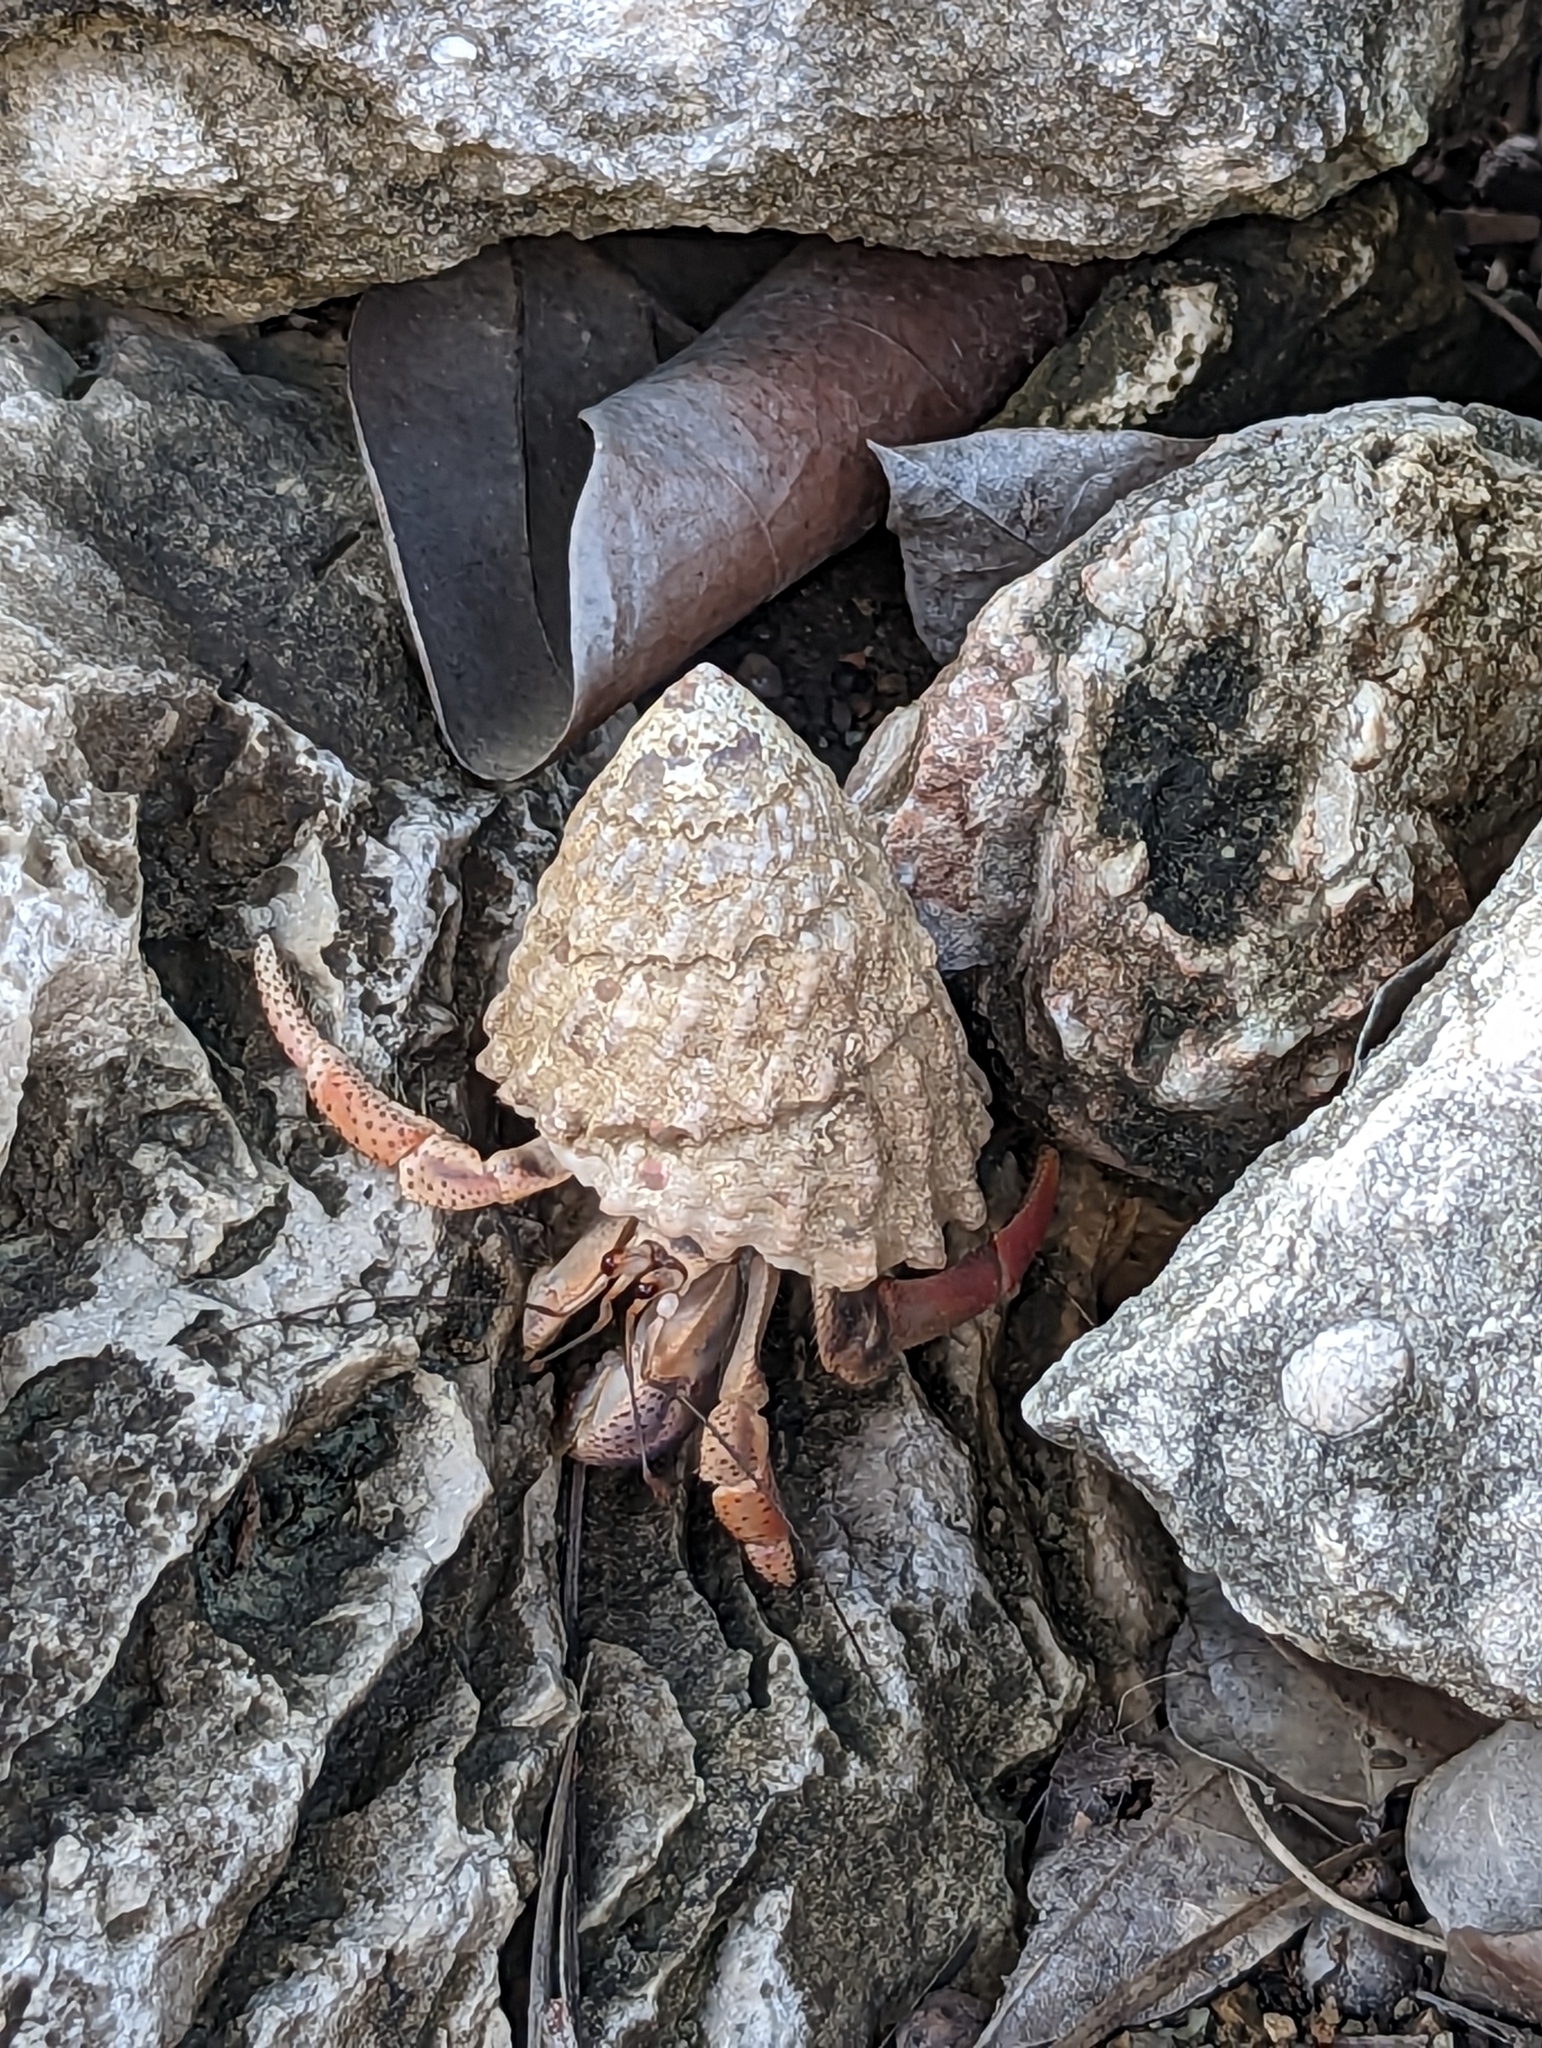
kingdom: Animalia
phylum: Arthropoda
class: Malacostraca
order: Decapoda
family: Coenobitidae
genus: Coenobita
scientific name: Coenobita clypeatus
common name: Caribbean hermit crab
